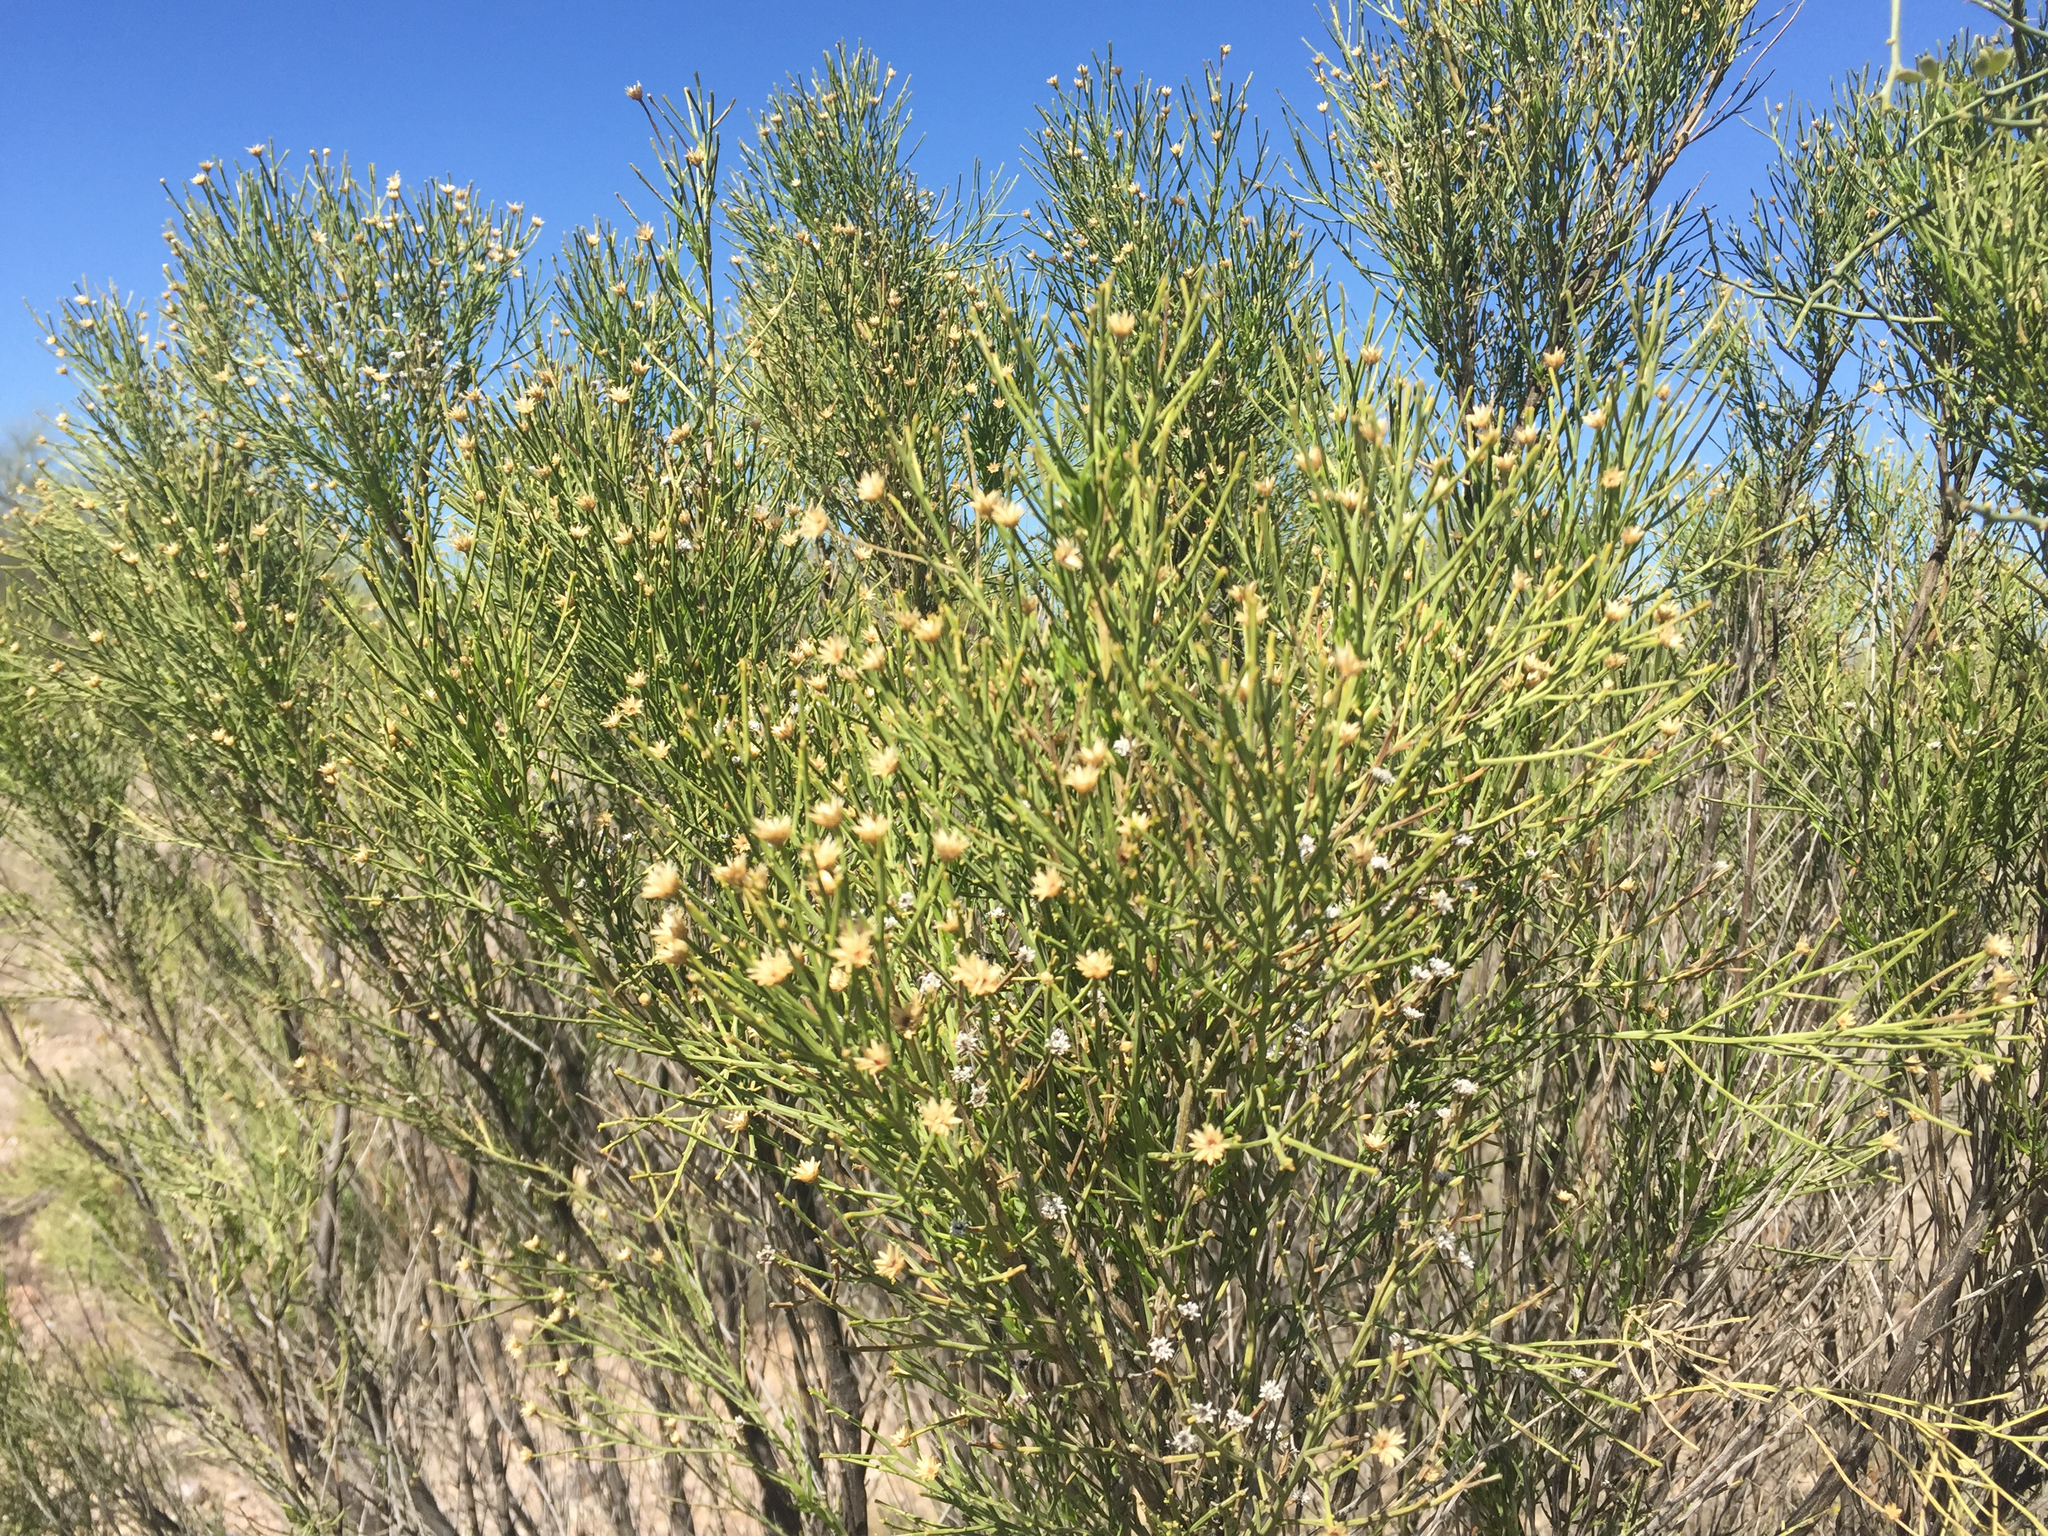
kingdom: Plantae
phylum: Tracheophyta
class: Magnoliopsida
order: Asterales
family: Asteraceae
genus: Baccharis
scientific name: Baccharis sarothroides
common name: Desert-broom
